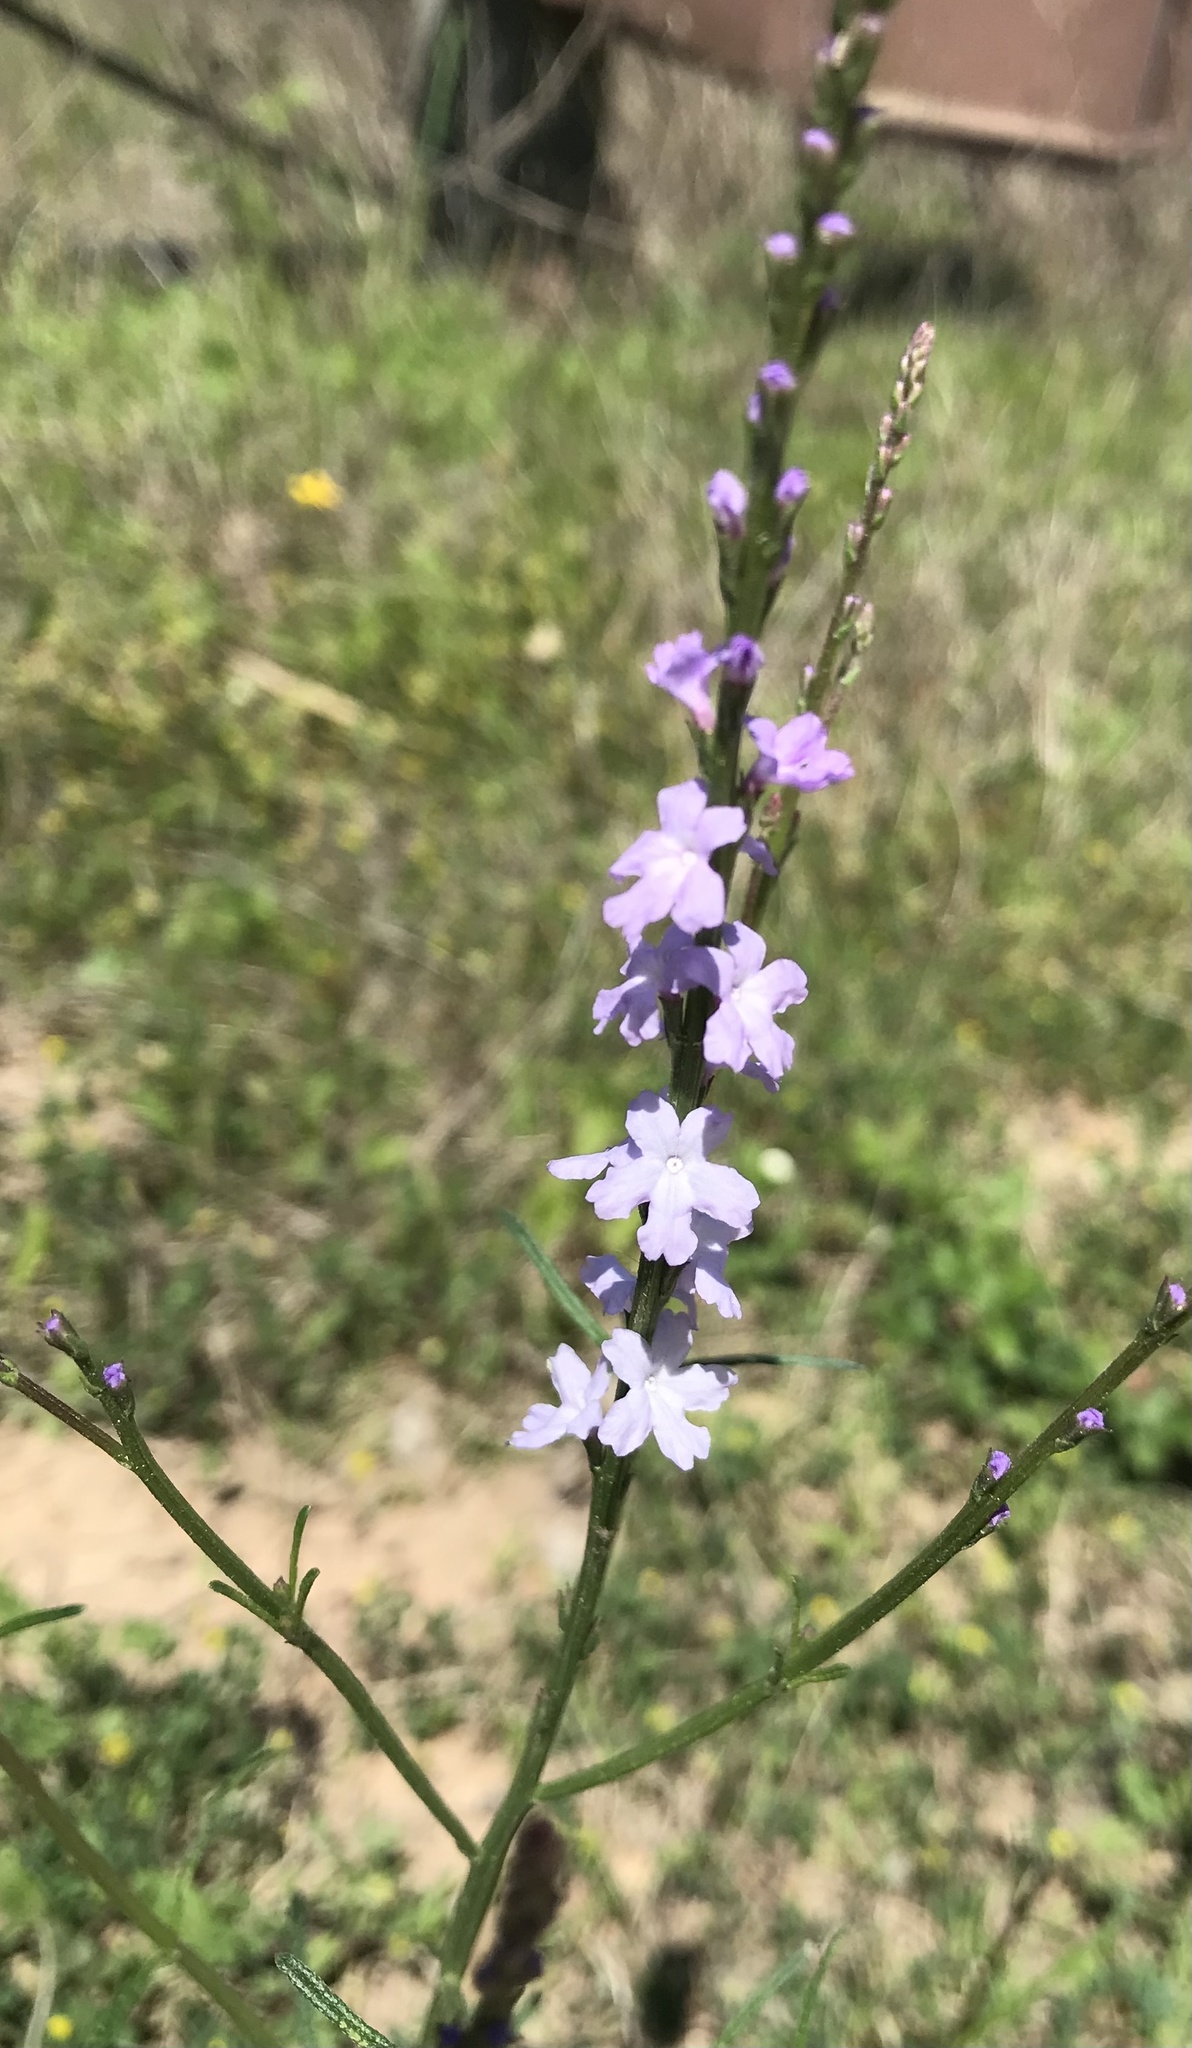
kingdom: Plantae
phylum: Tracheophyta
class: Magnoliopsida
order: Lamiales
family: Verbenaceae
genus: Verbena
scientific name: Verbena halei
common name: Texas vervain
